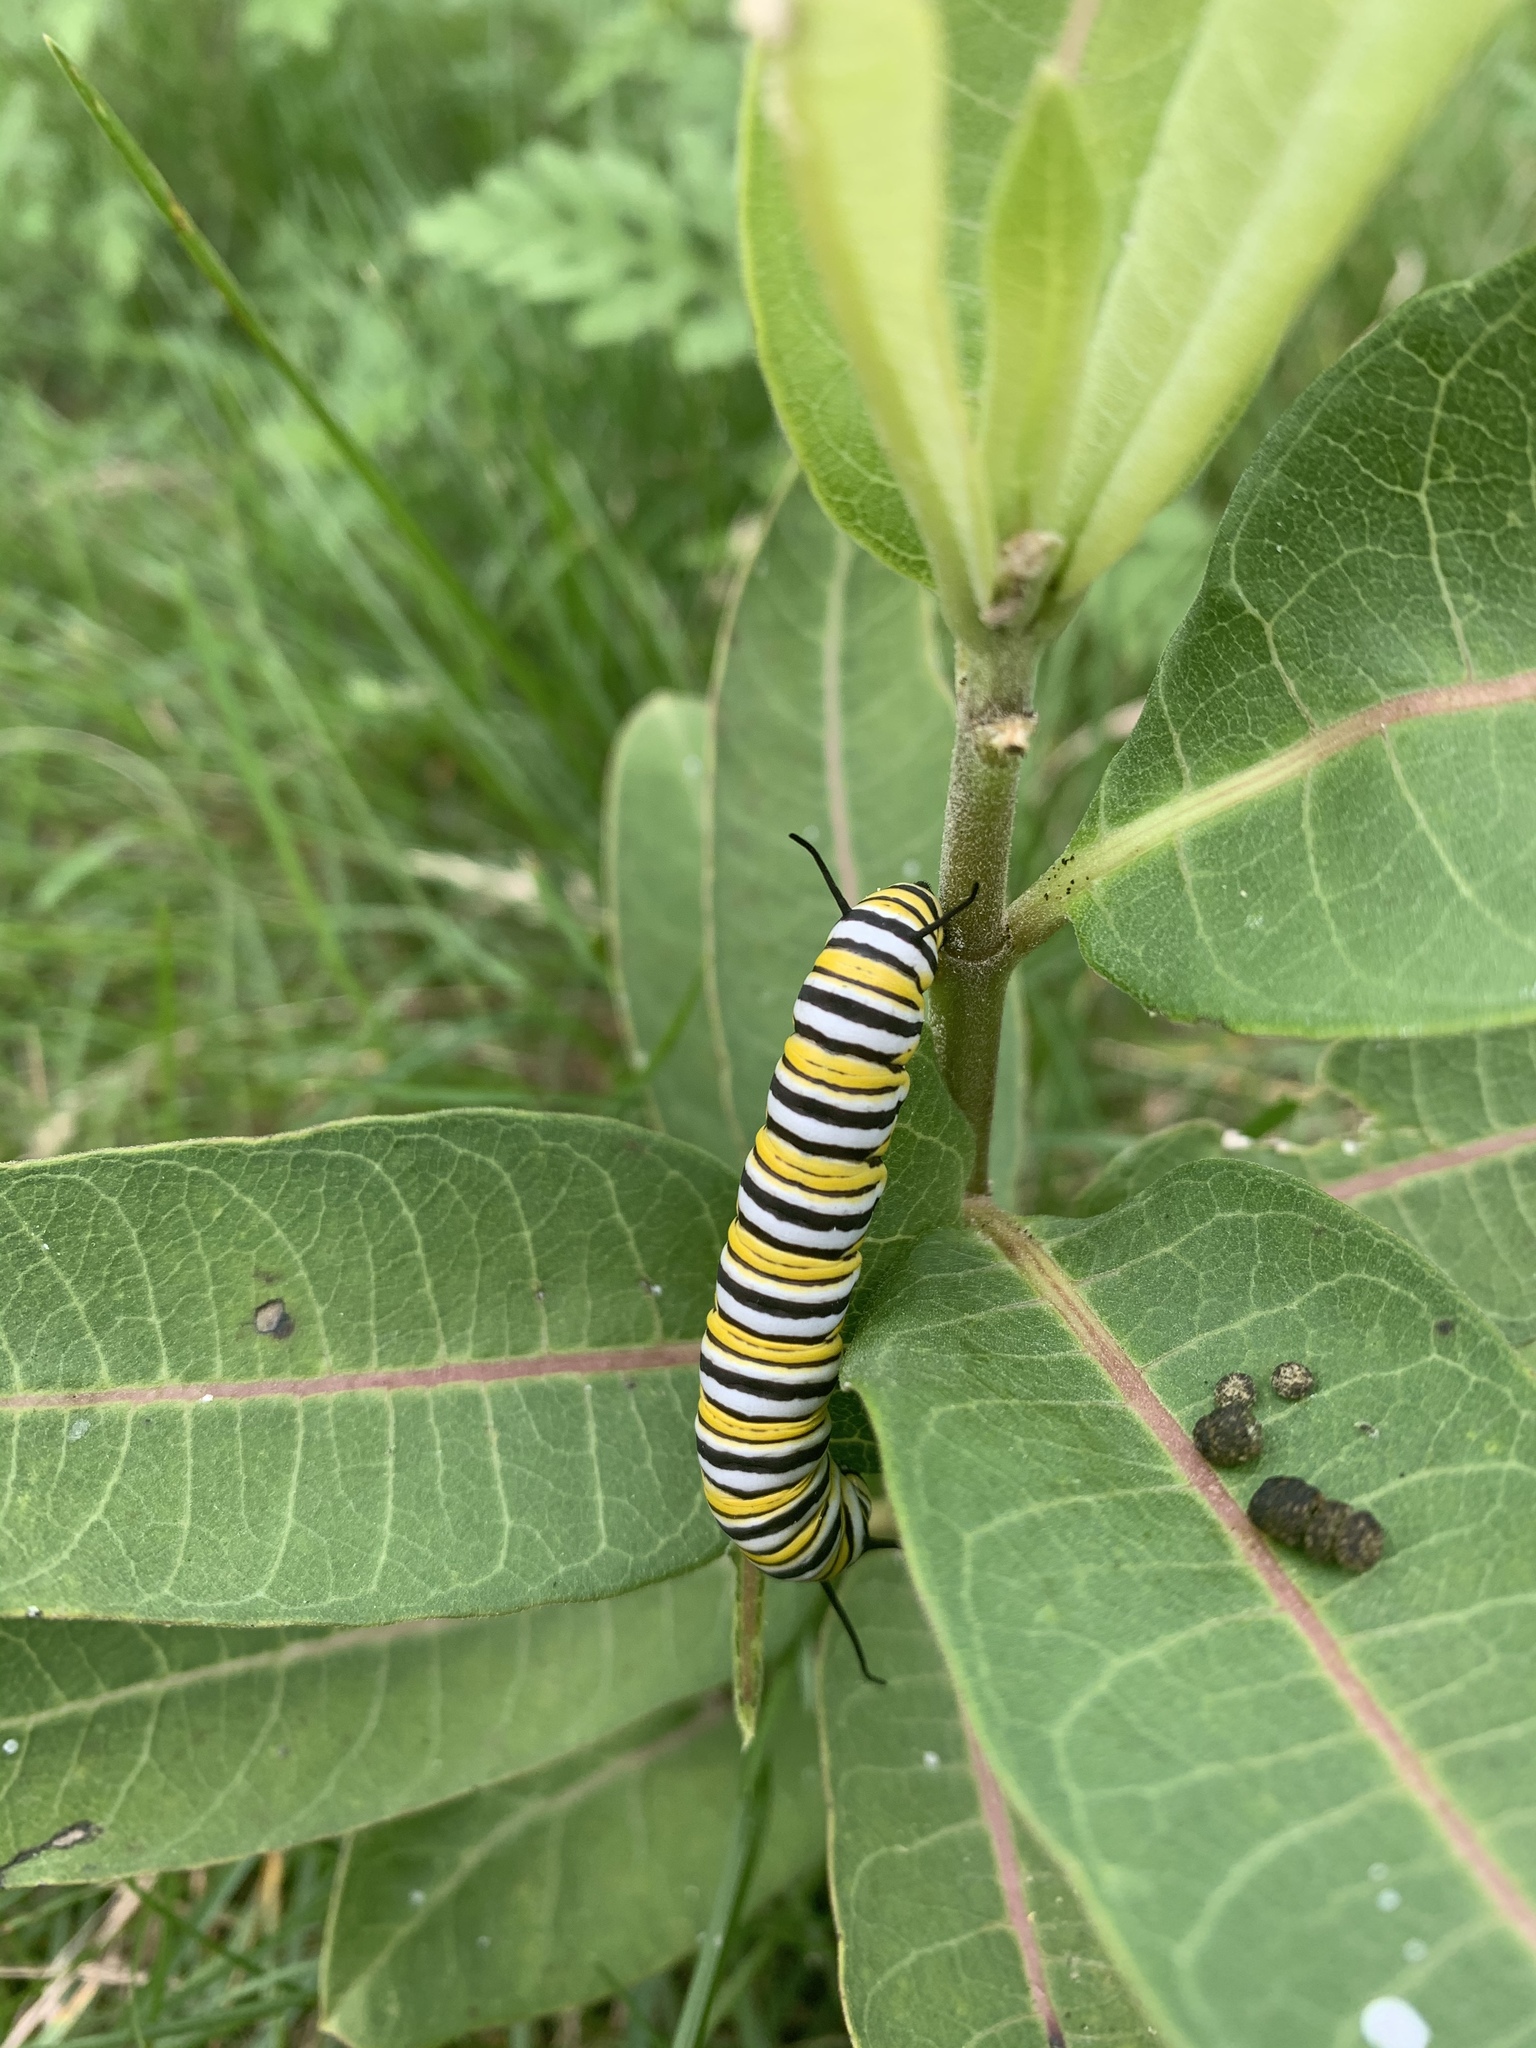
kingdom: Animalia
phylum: Arthropoda
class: Insecta
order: Lepidoptera
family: Nymphalidae
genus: Danaus
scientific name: Danaus plexippus
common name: Monarch
